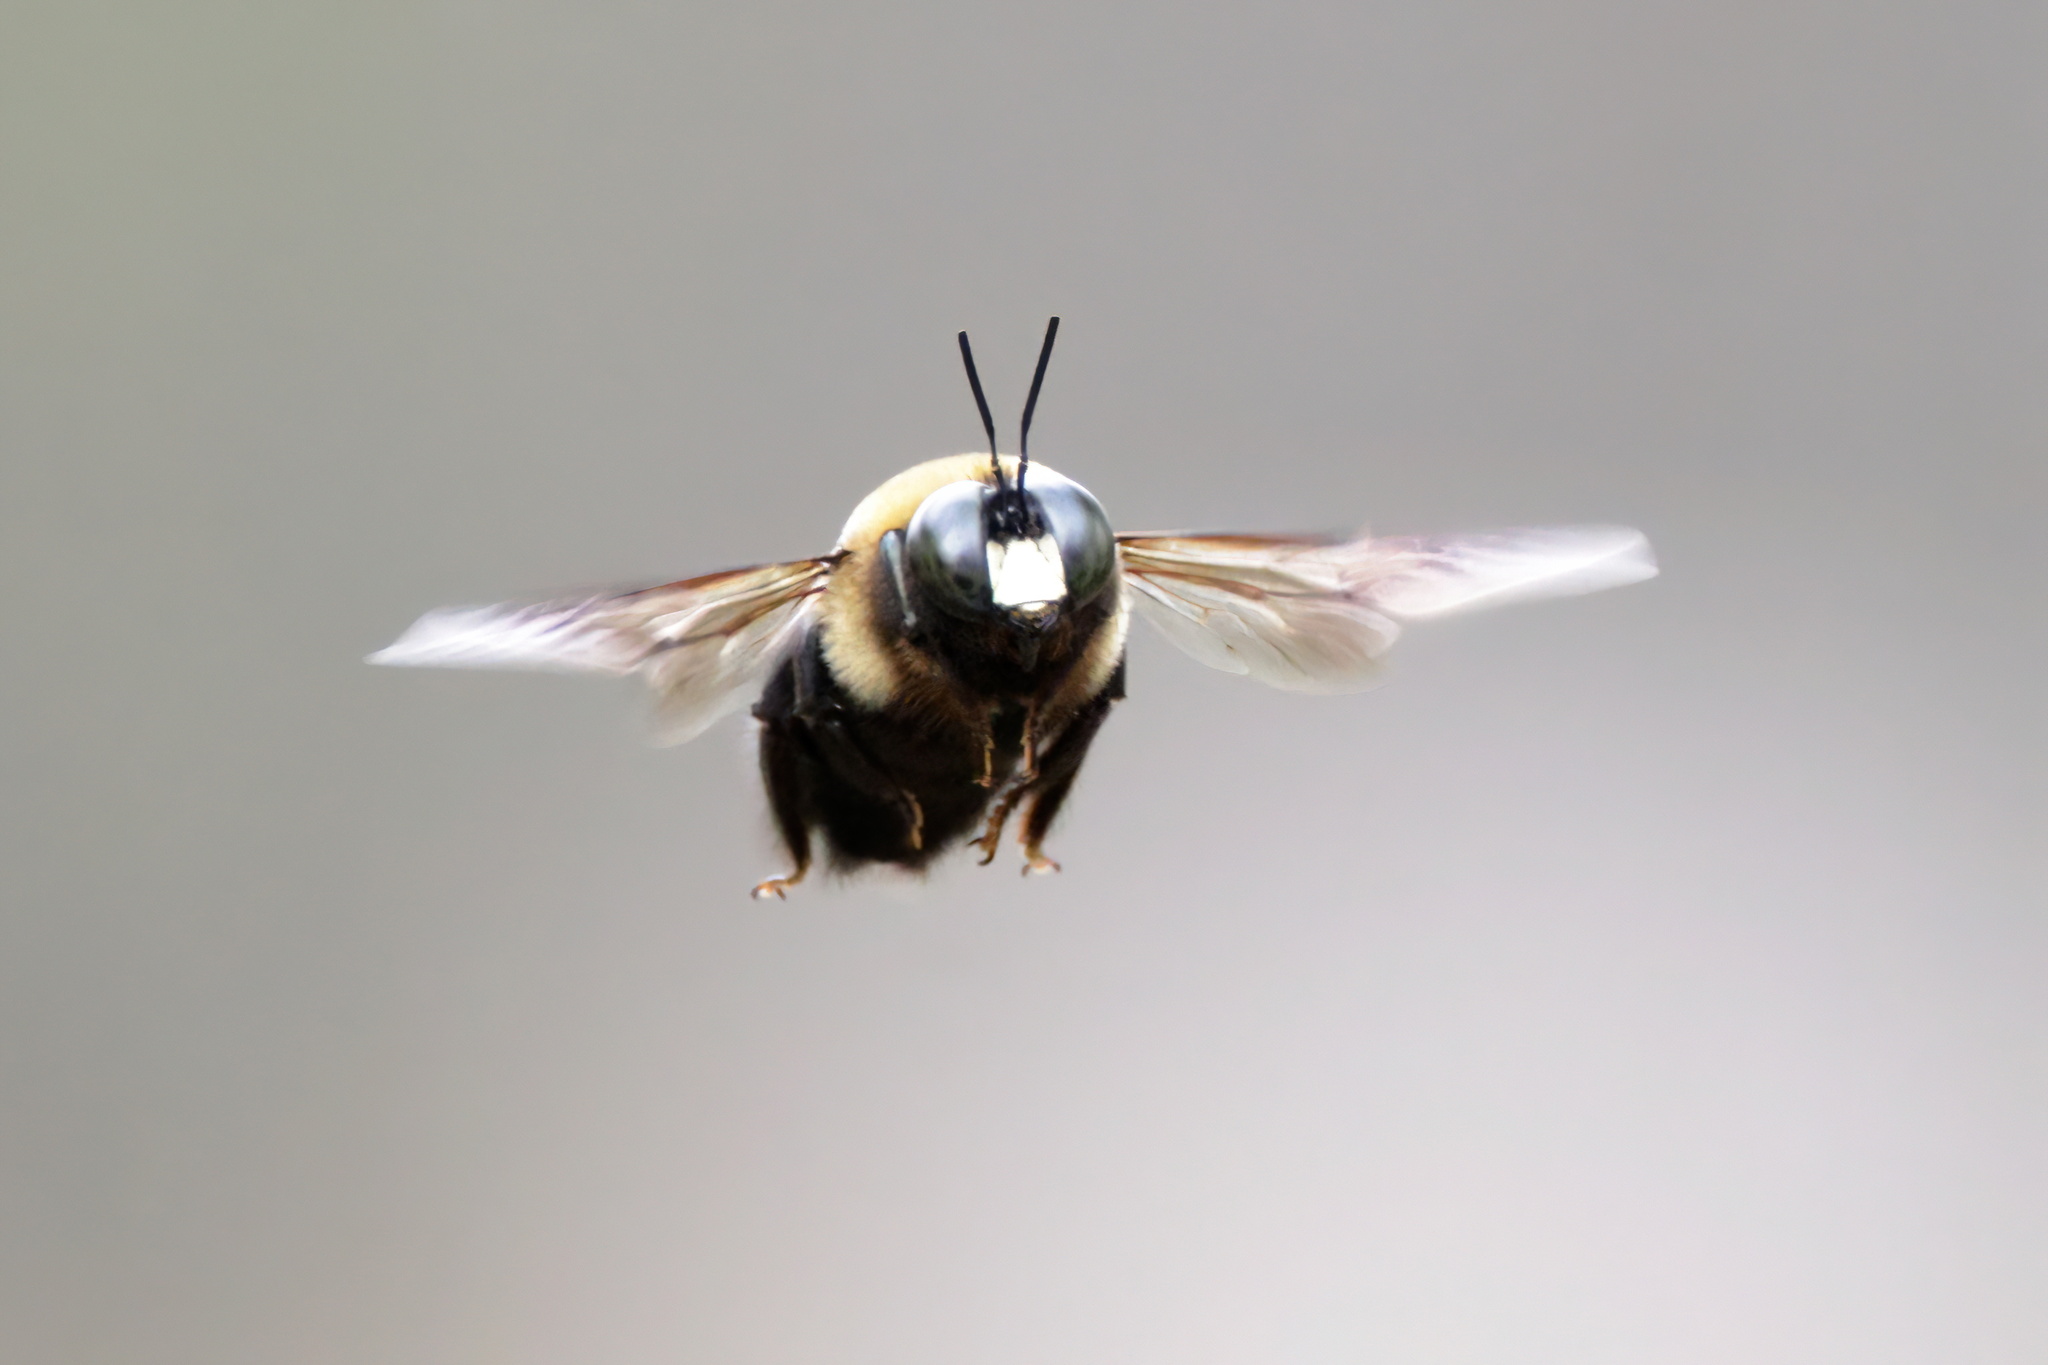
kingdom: Animalia
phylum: Arthropoda
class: Insecta
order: Hymenoptera
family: Apidae
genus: Xylocopa
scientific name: Xylocopa virginica
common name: Carpenter bee
